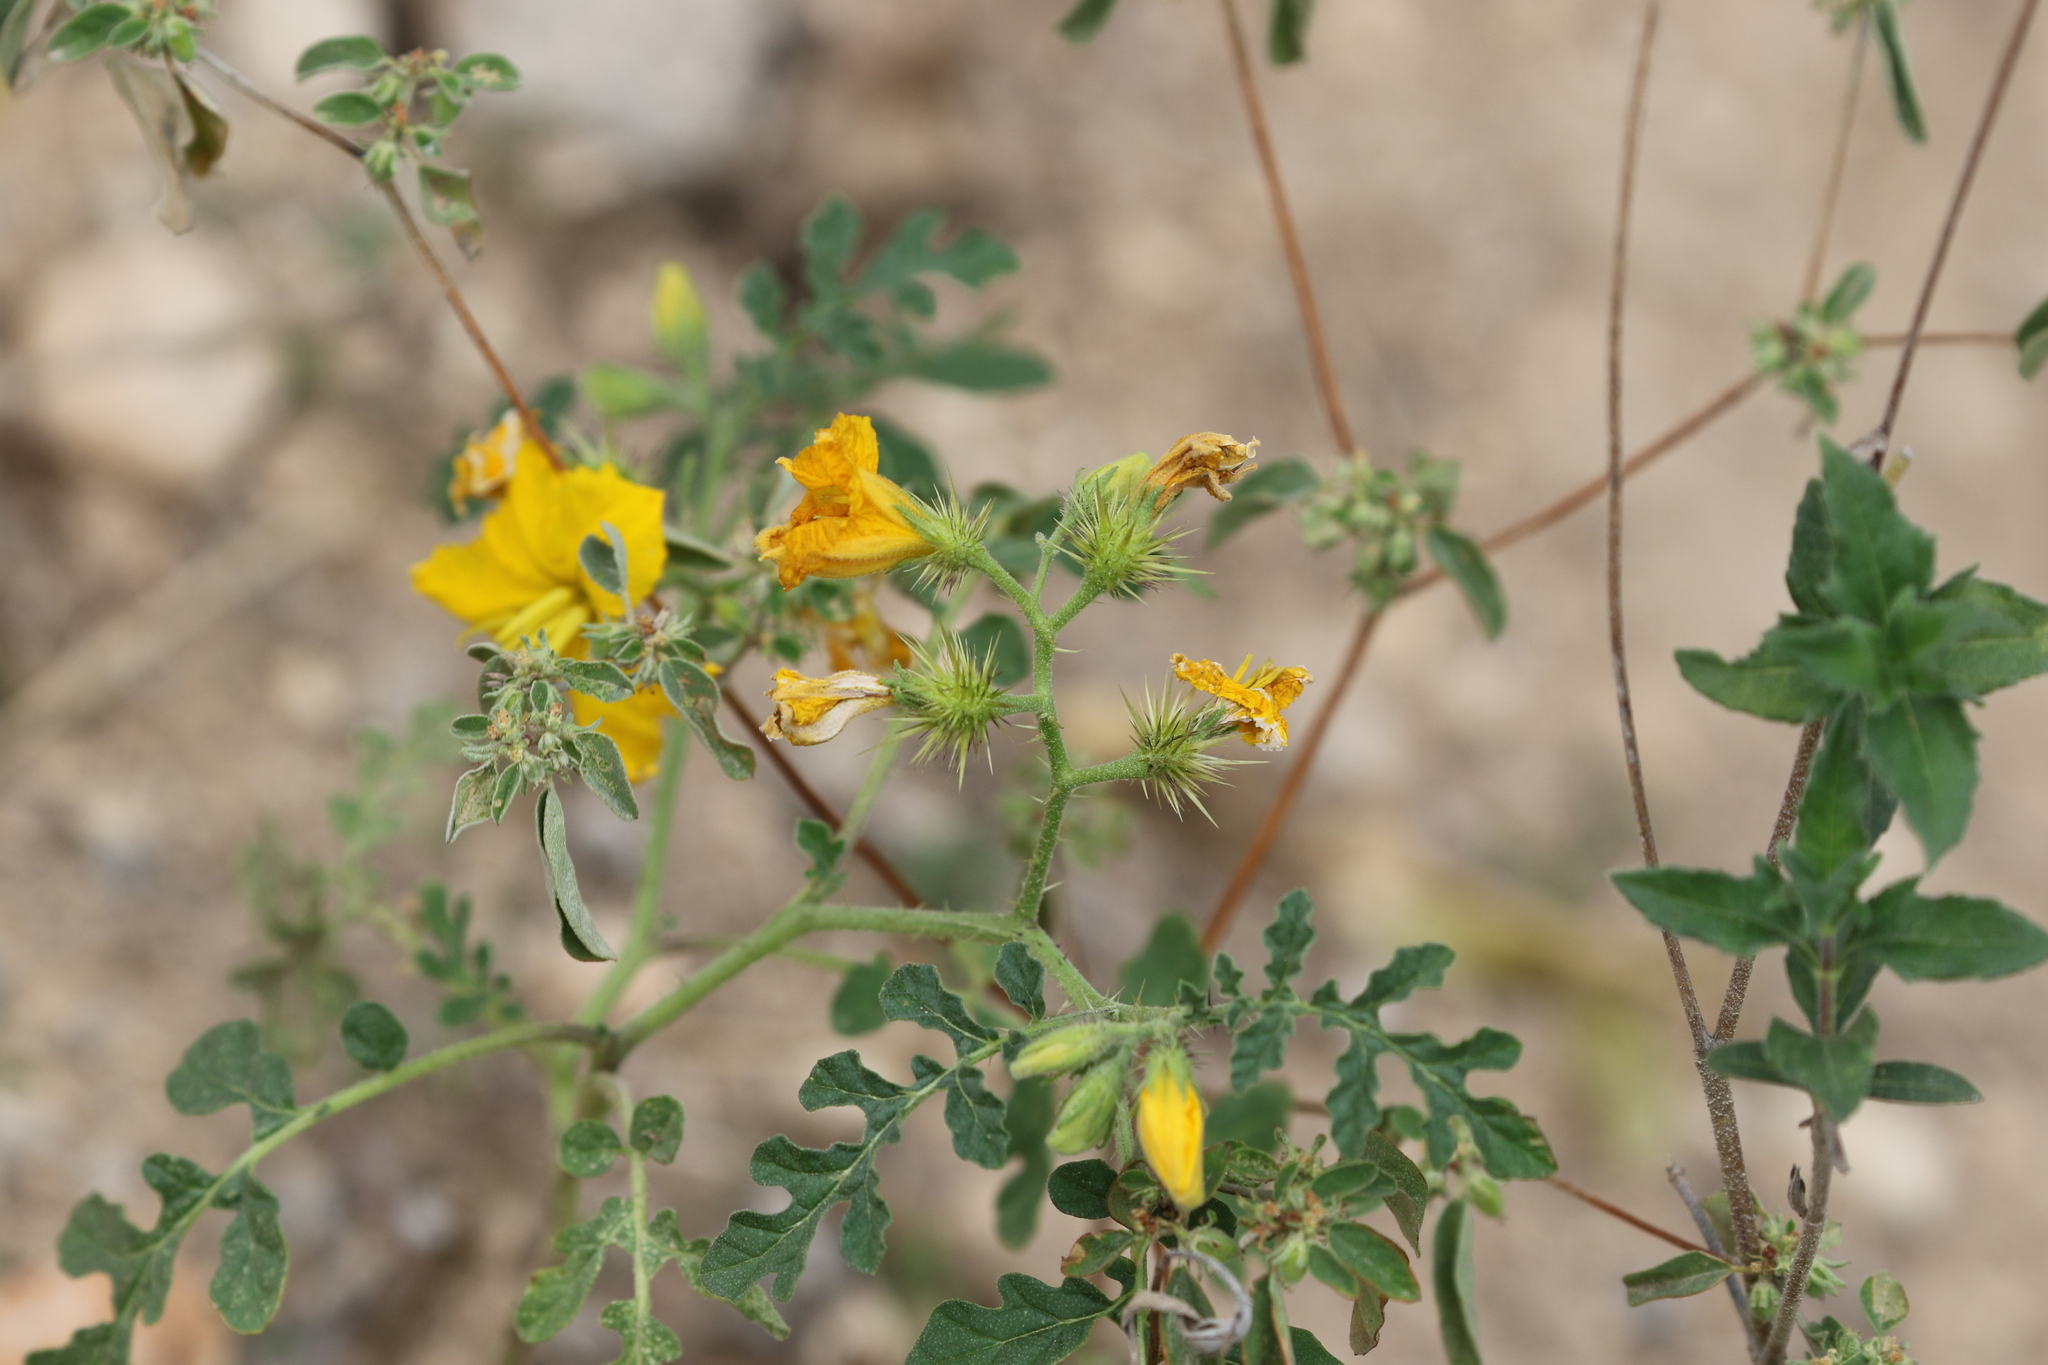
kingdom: Plantae
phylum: Tracheophyta
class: Magnoliopsida
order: Solanales
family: Solanaceae
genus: Solanum
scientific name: Solanum angustifolium
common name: Buffalobur nightshade
